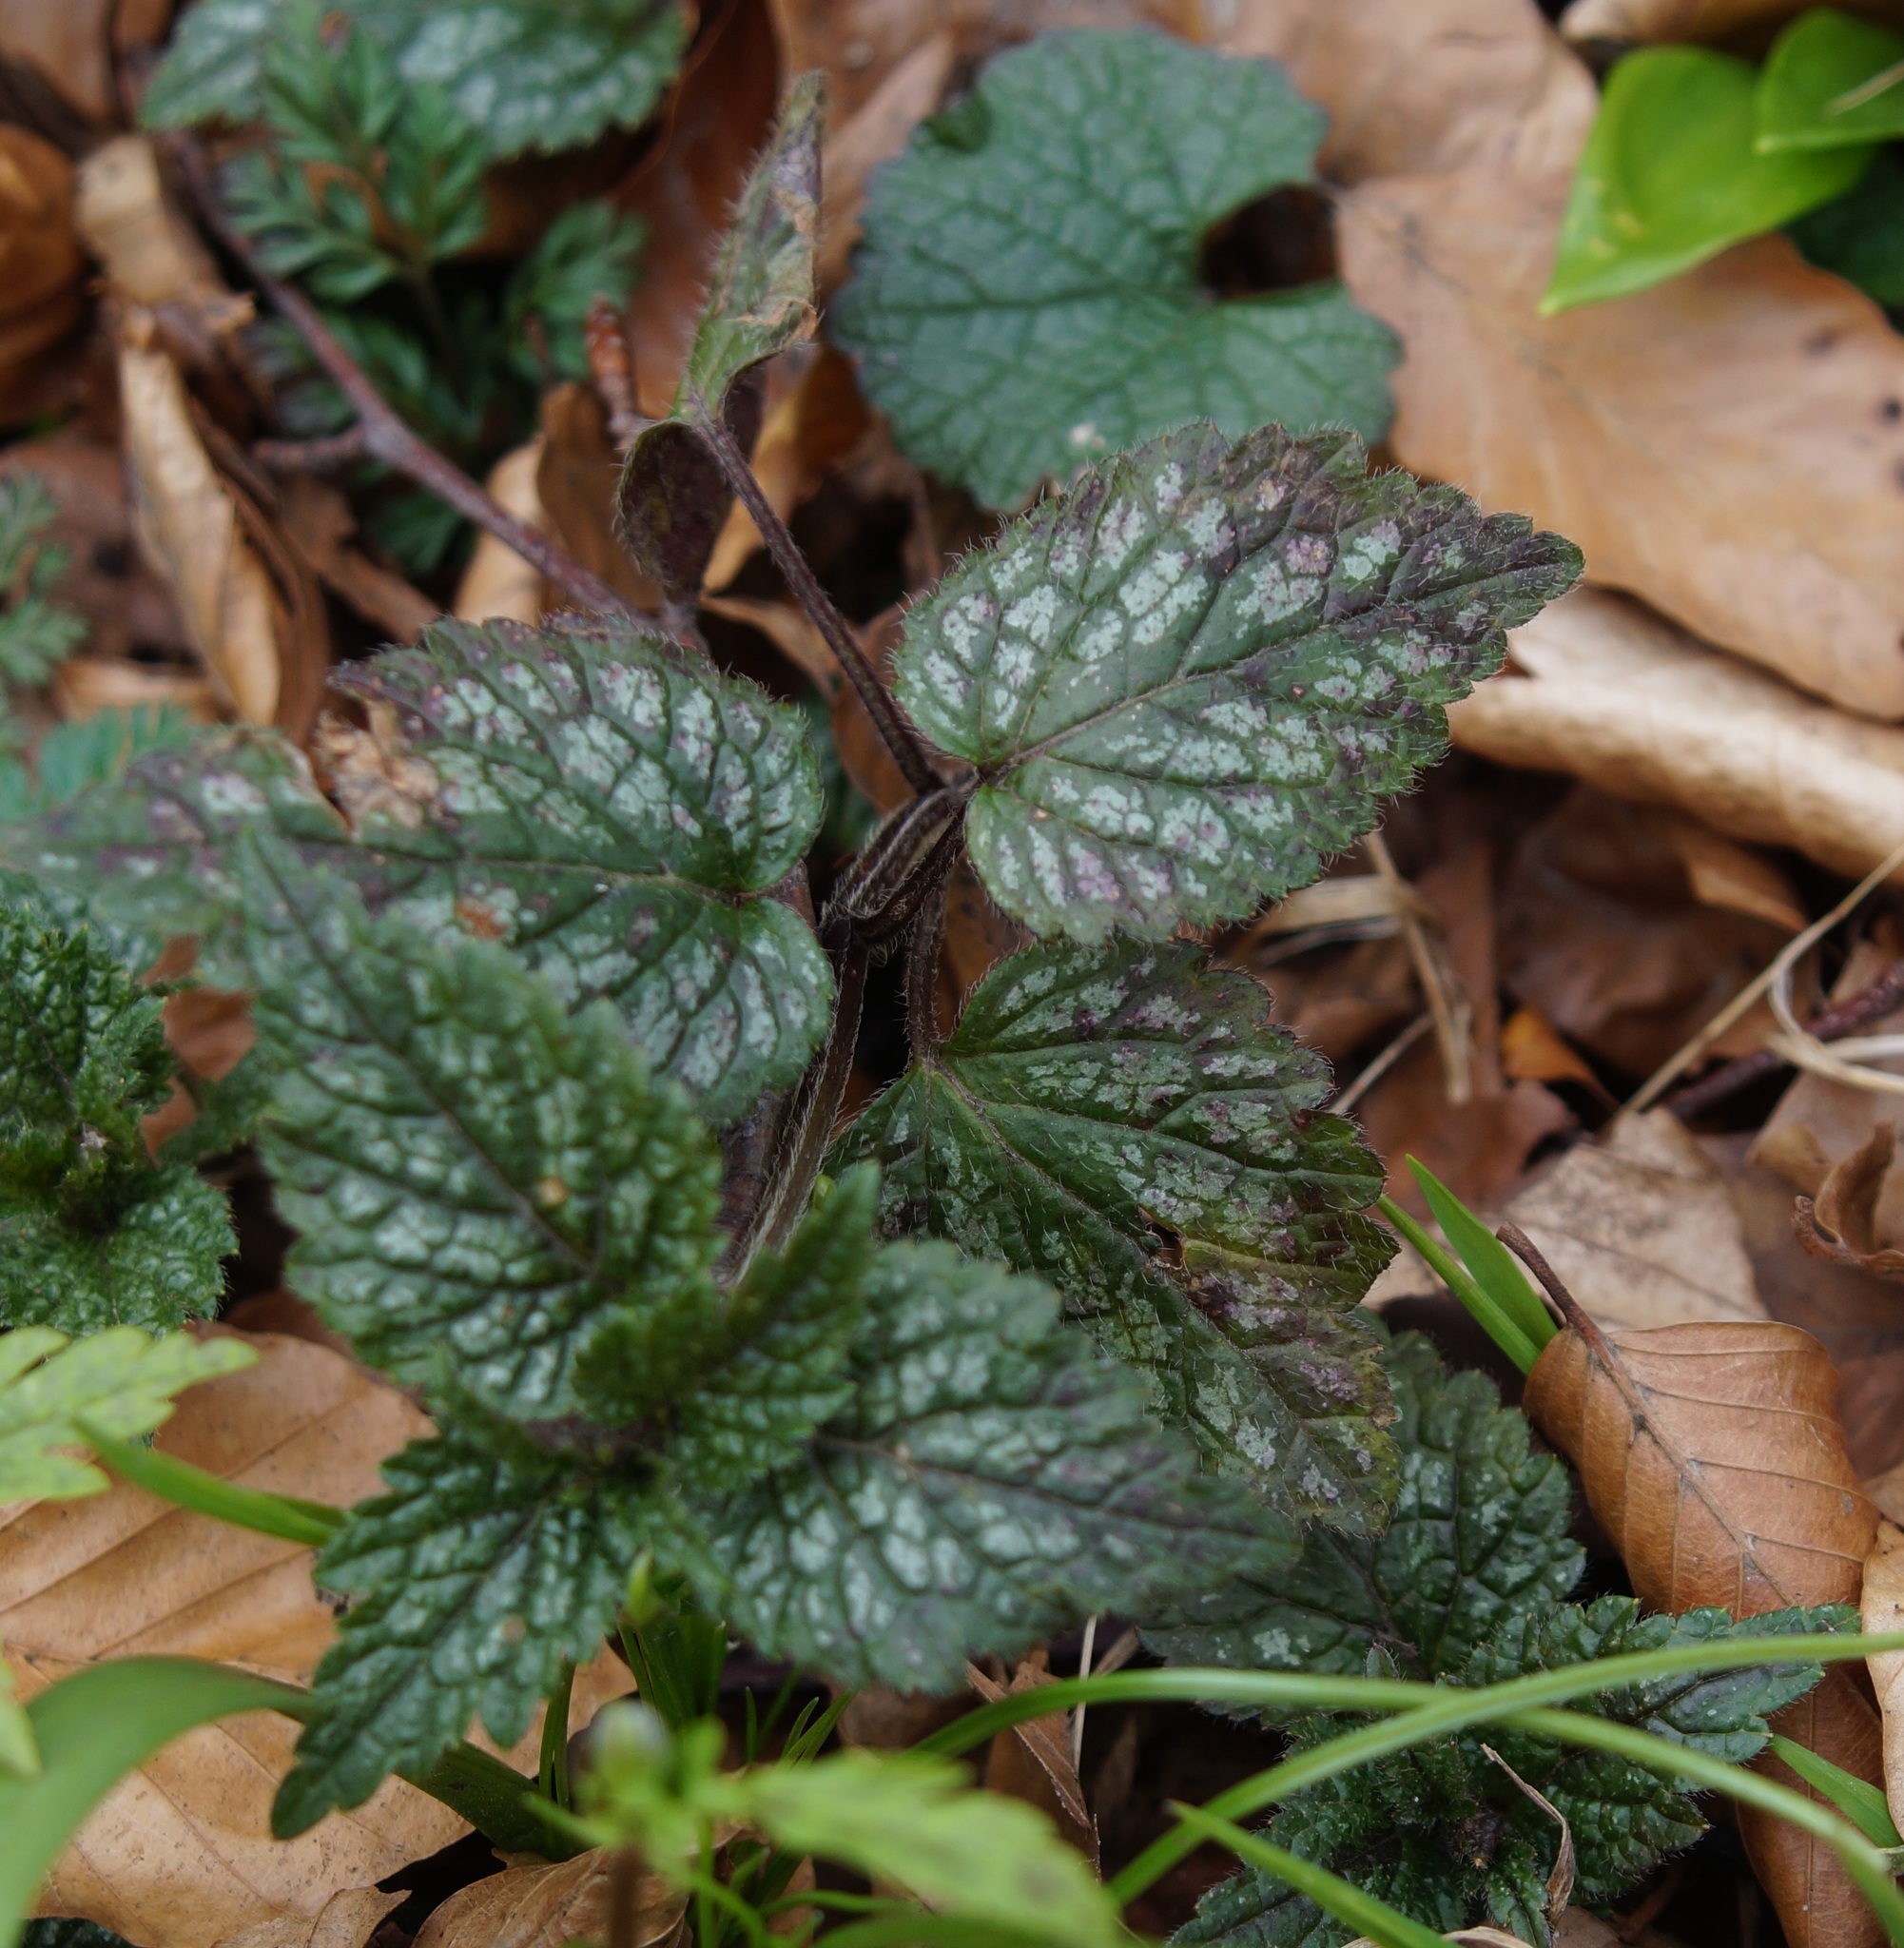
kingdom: Plantae
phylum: Tracheophyta
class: Magnoliopsida
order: Lamiales
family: Lamiaceae
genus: Lamium
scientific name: Lamium galeobdolon
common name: Yellow archangel
